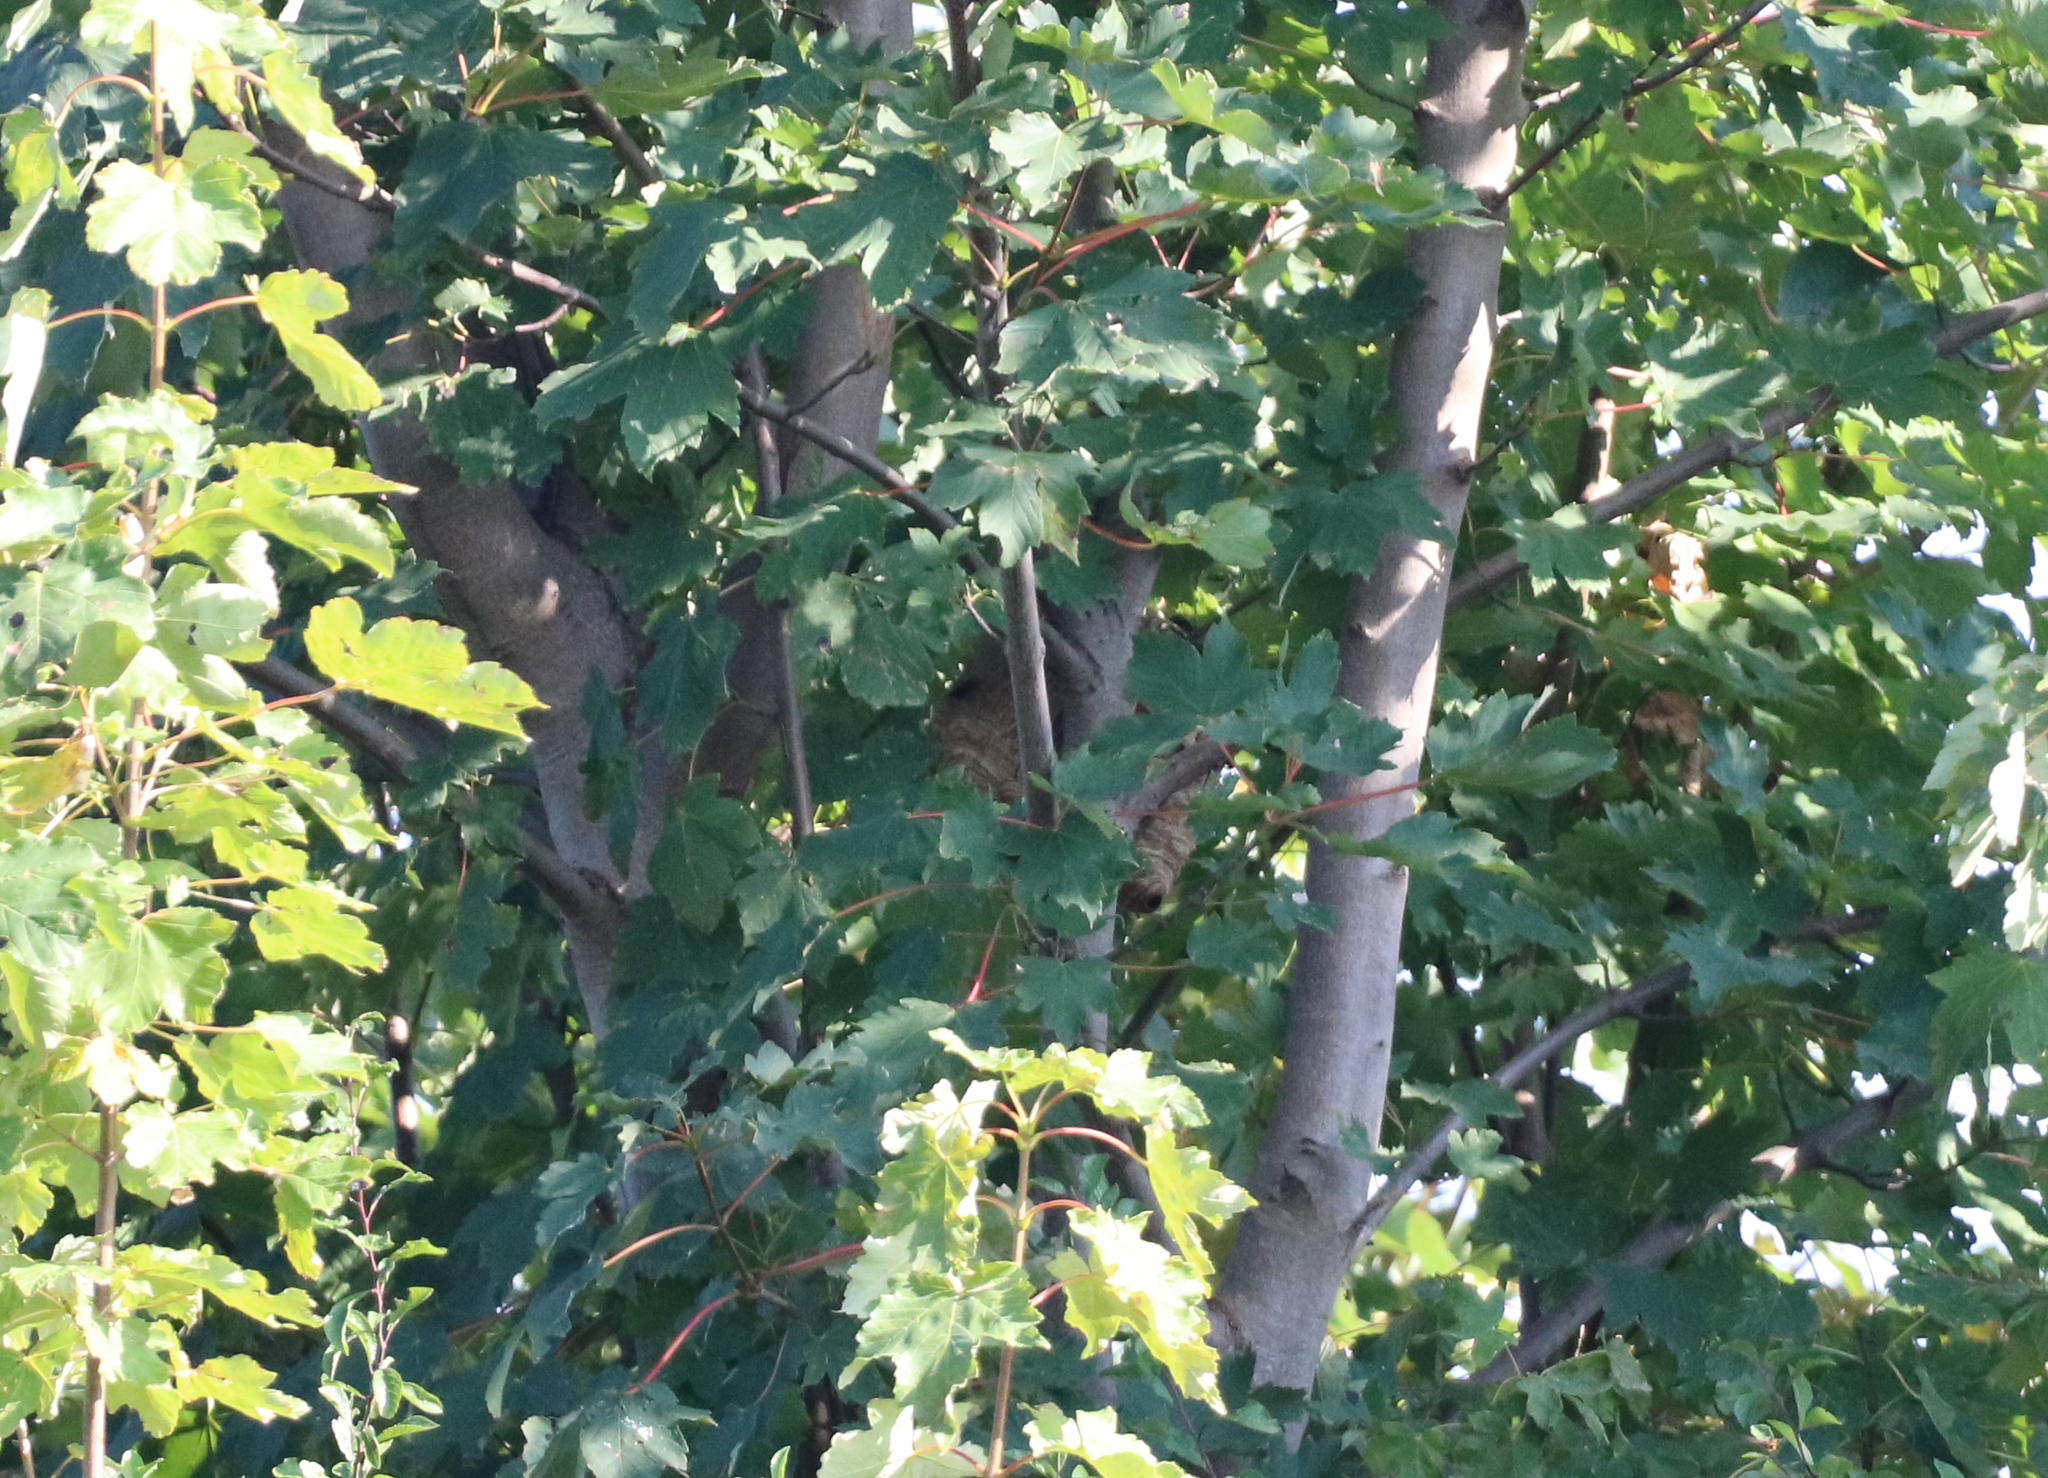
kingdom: Animalia
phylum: Arthropoda
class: Insecta
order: Hymenoptera
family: Vespidae
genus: Vespa
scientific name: Vespa velutina
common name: Asian hornet
